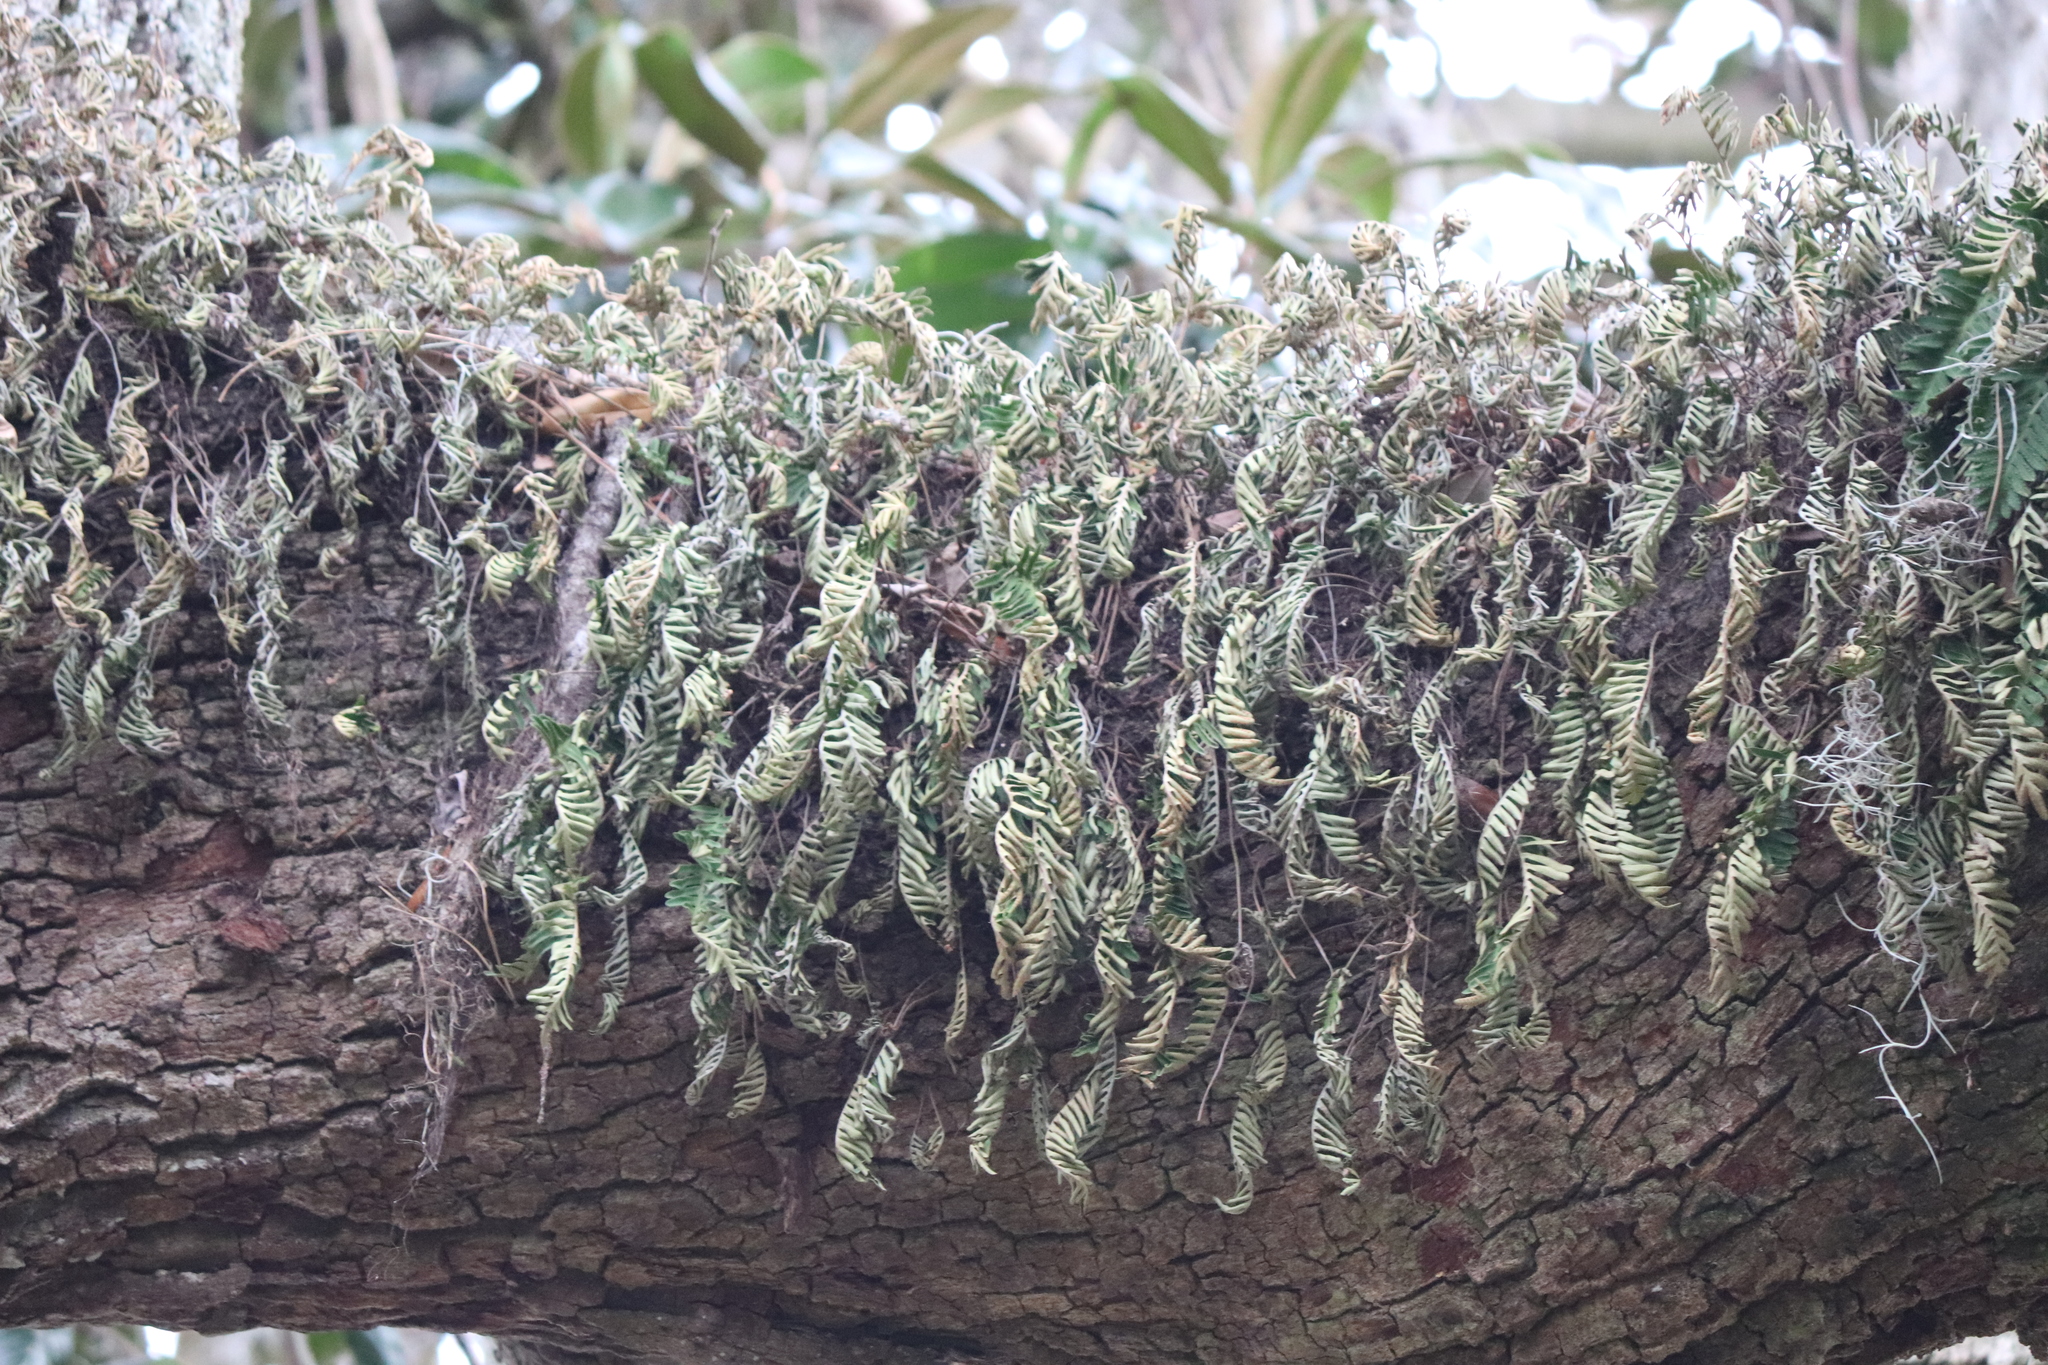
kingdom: Plantae
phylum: Tracheophyta
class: Polypodiopsida
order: Polypodiales
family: Polypodiaceae
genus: Pleopeltis
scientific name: Pleopeltis michauxiana
